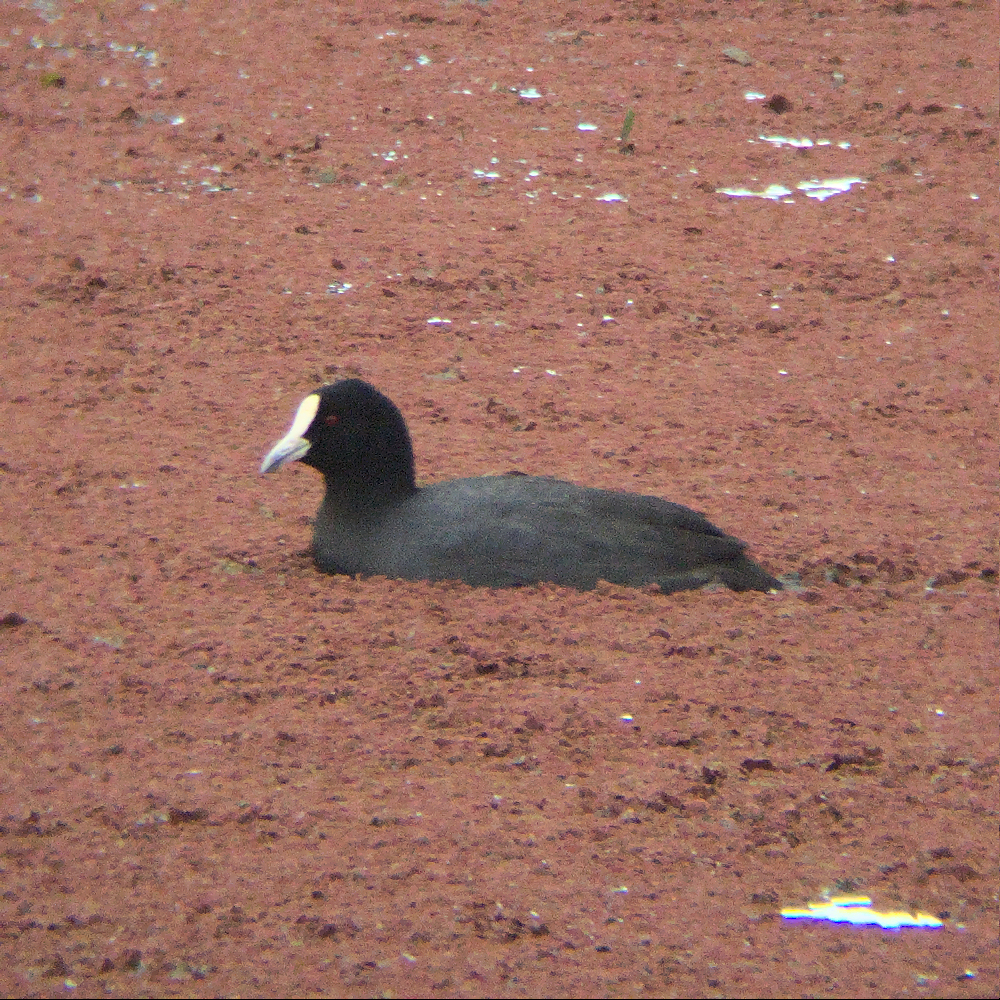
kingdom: Animalia
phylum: Chordata
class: Aves
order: Gruiformes
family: Rallidae
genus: Fulica
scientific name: Fulica atra
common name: Eurasian coot
